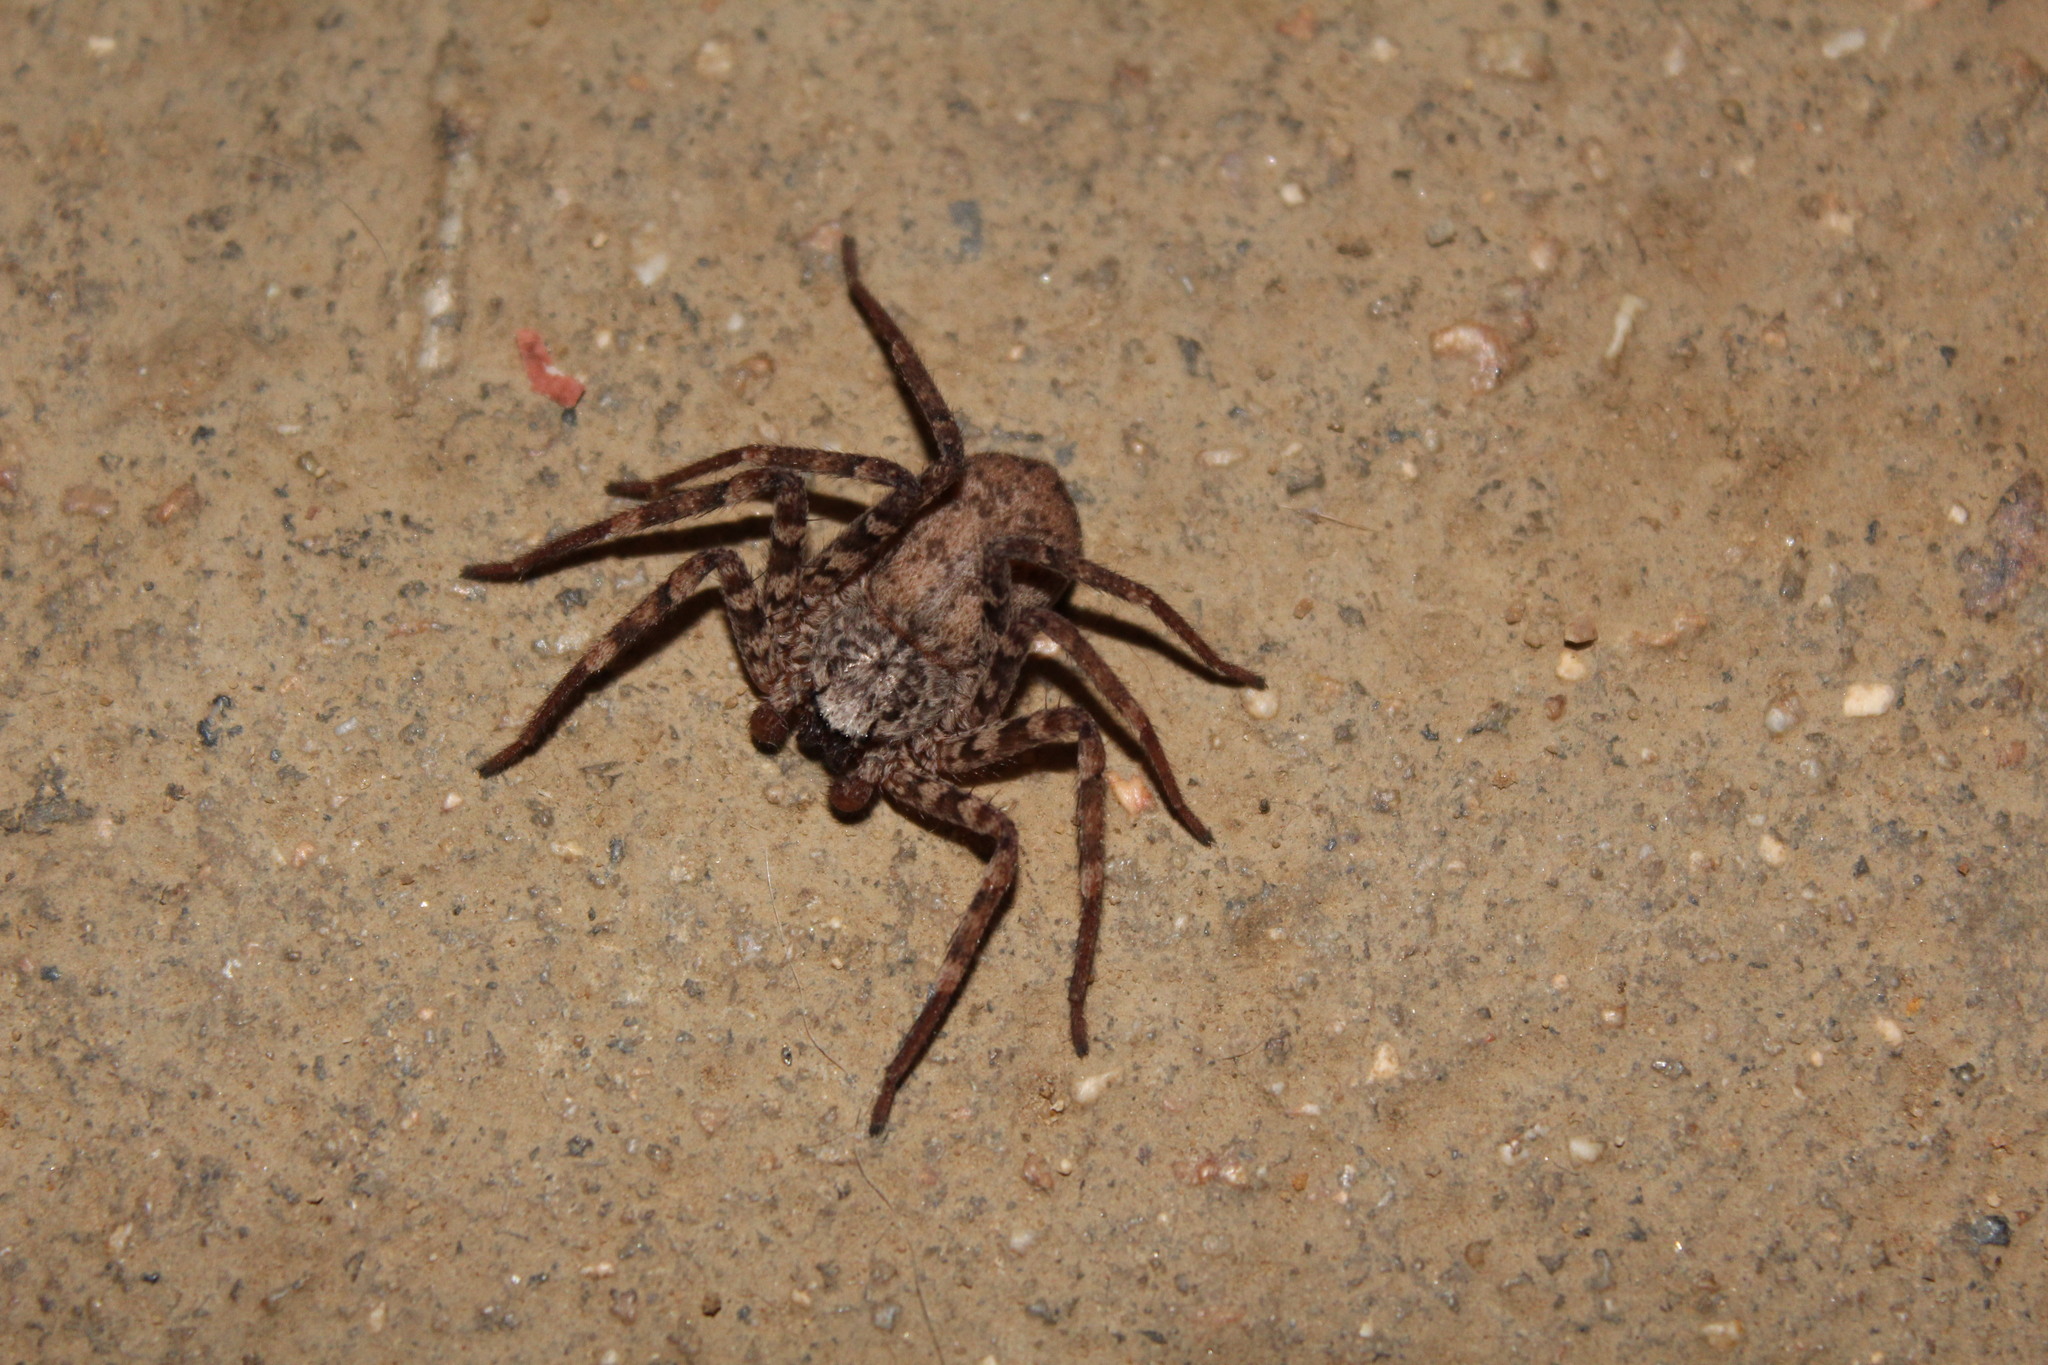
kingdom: Animalia
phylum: Arthropoda
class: Arachnida
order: Araneae
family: Selenopidae
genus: Selenops
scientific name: Selenops nigromaculatus
